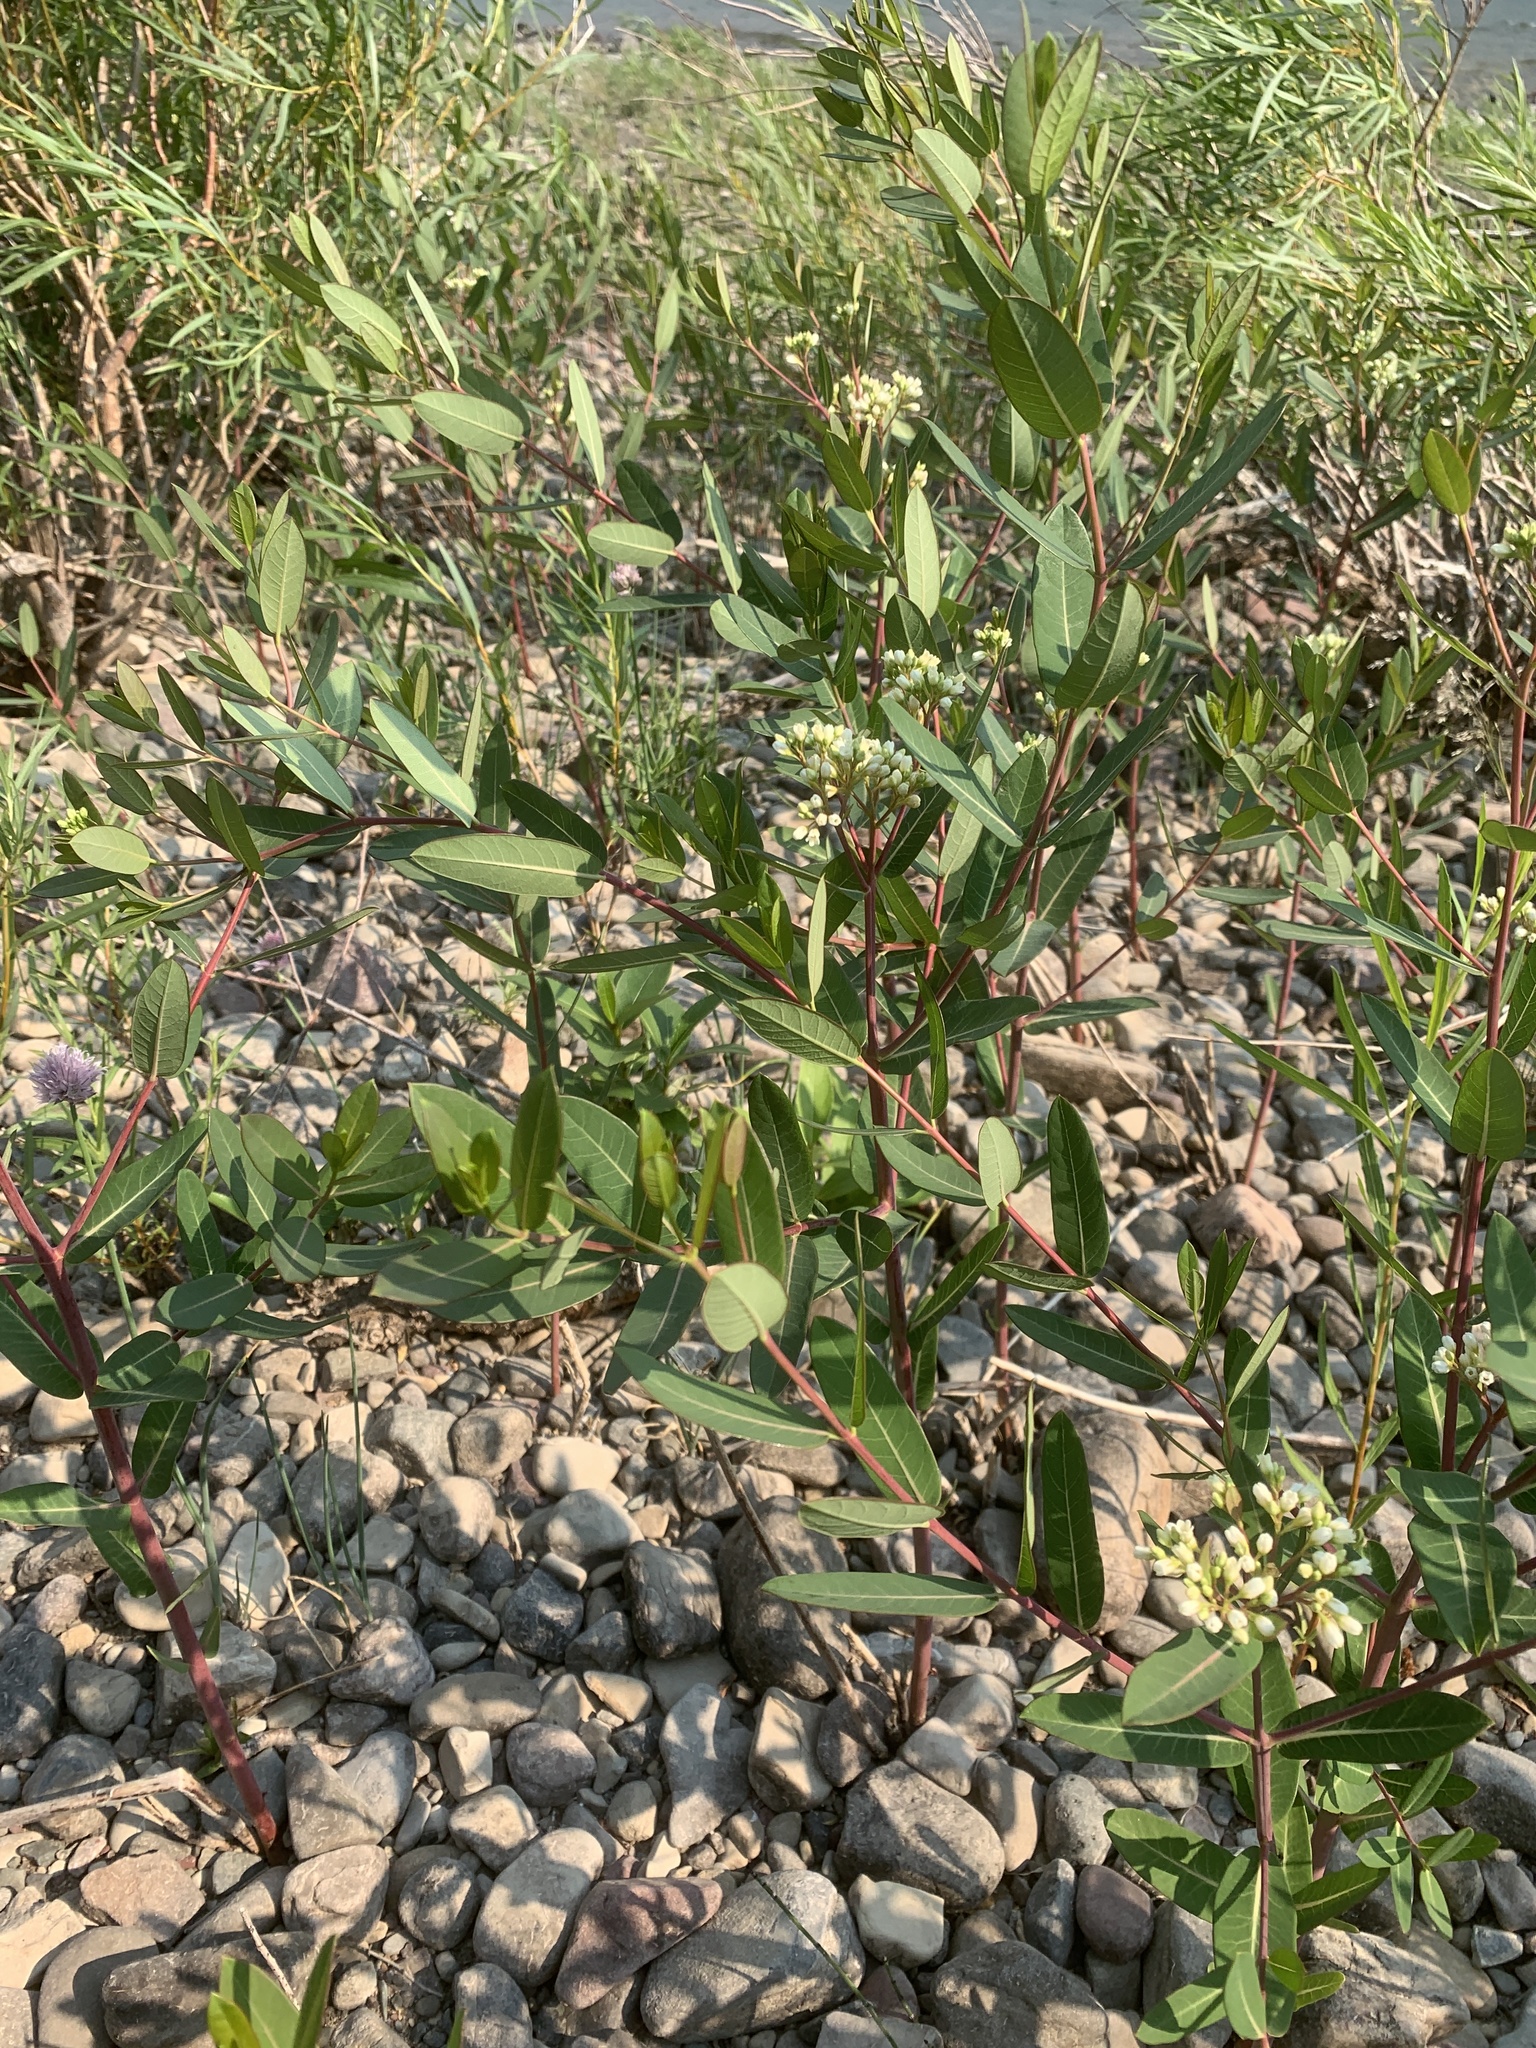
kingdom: Plantae
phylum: Tracheophyta
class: Magnoliopsida
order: Gentianales
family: Apocynaceae
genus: Apocynum
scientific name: Apocynum cannabinum
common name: Hemp dogbane
